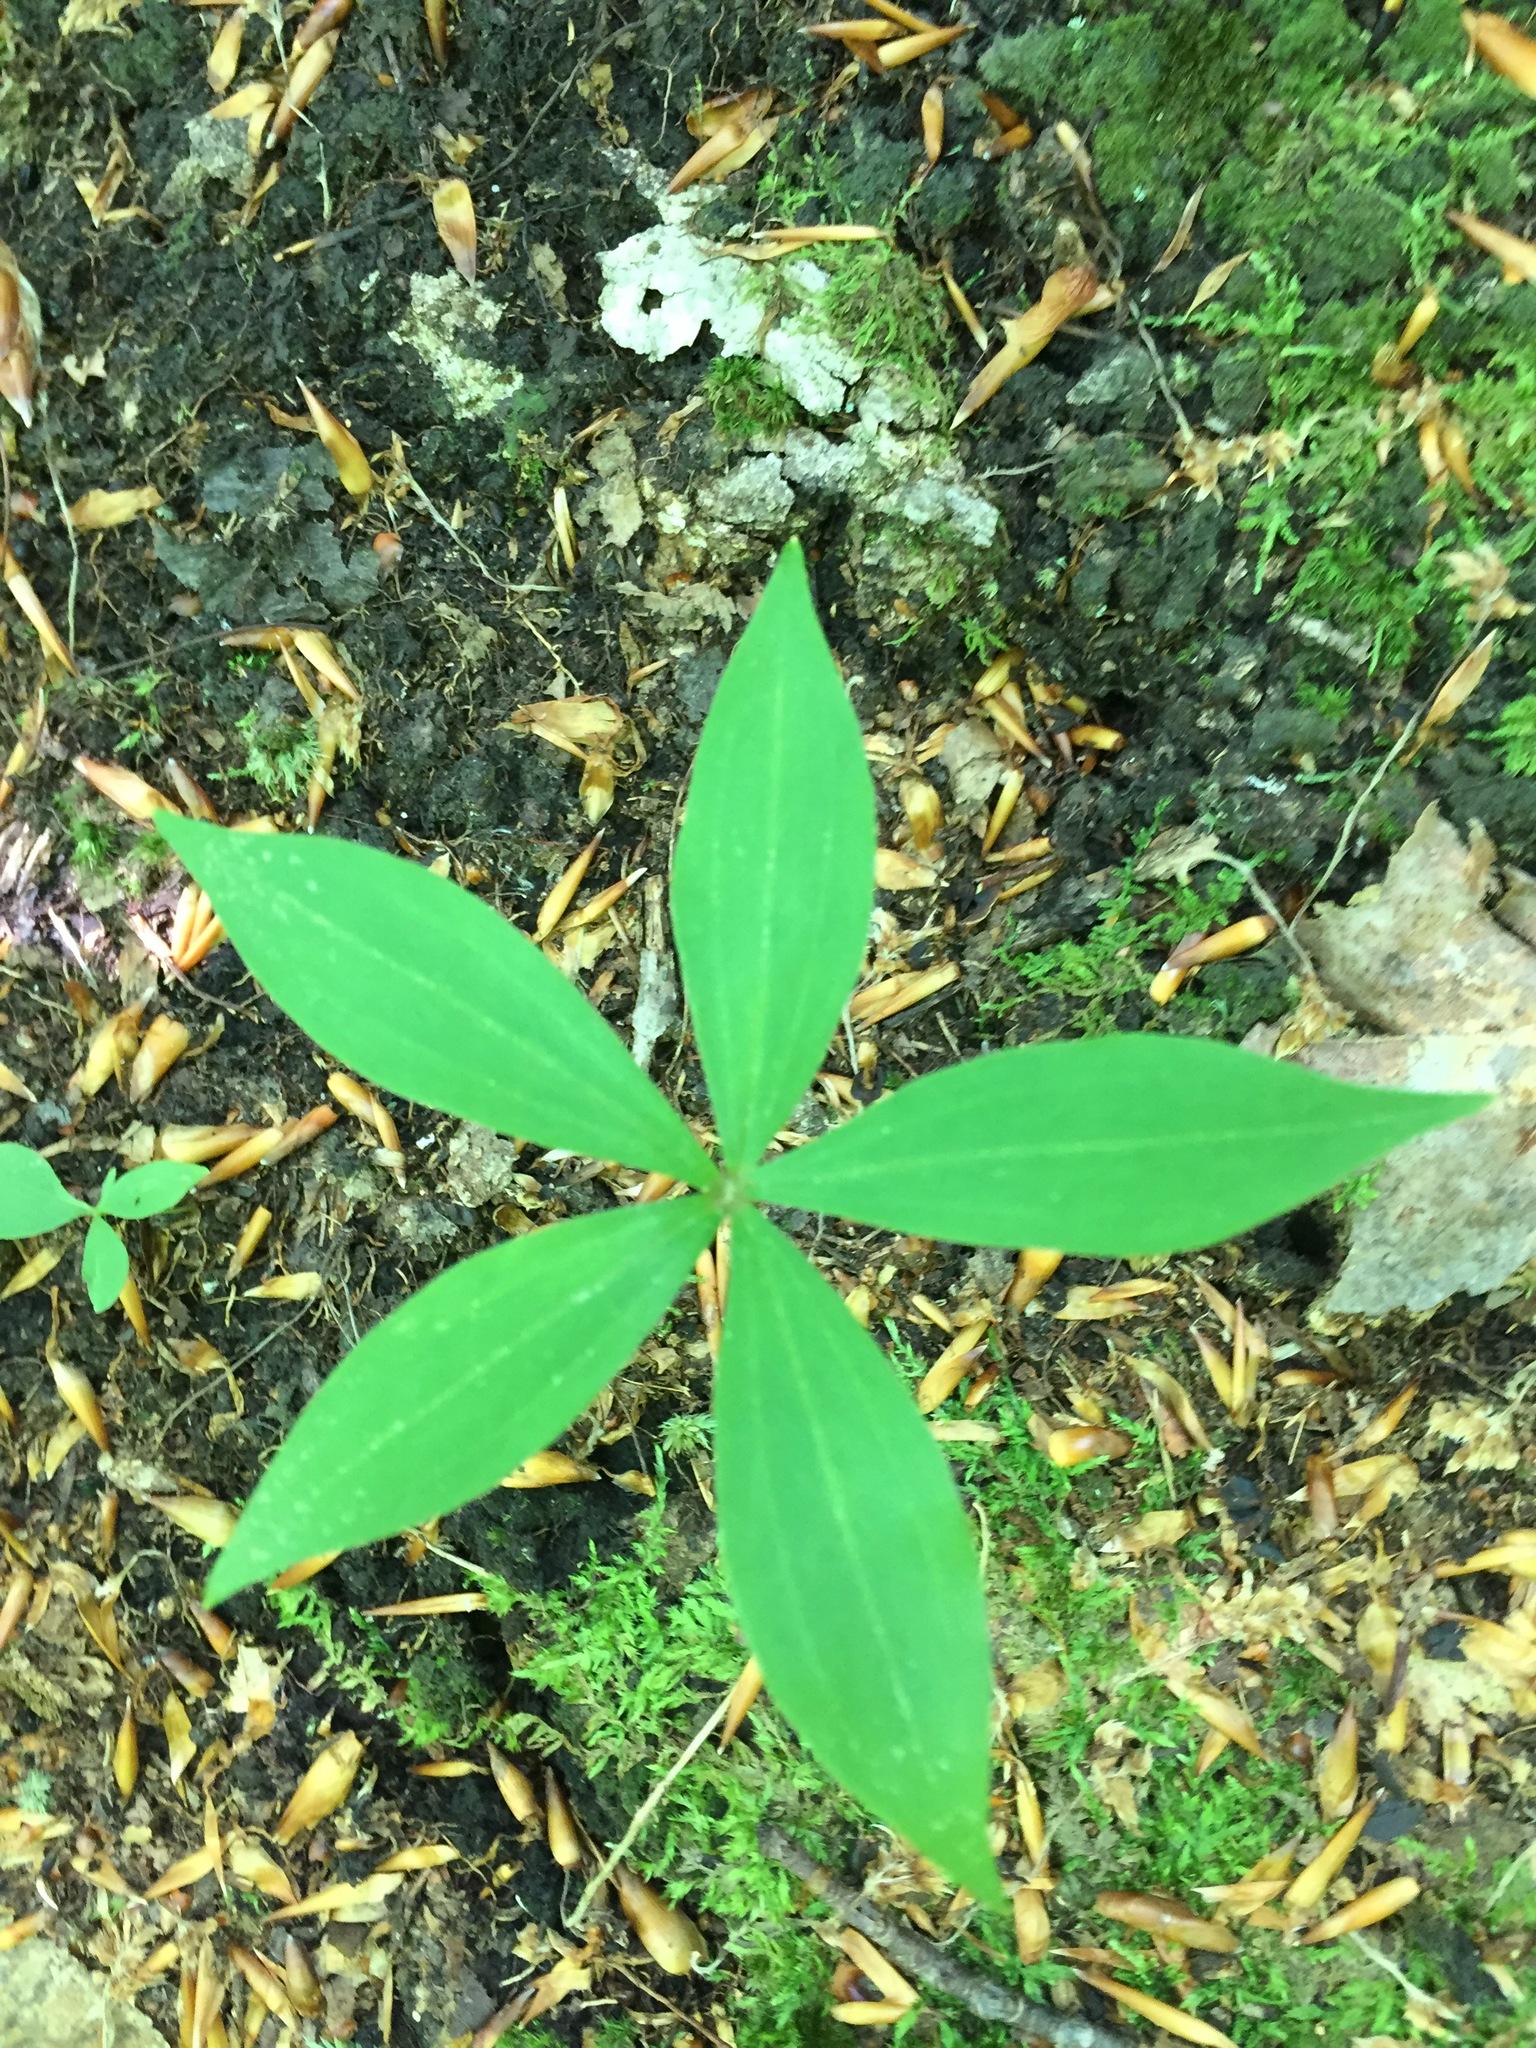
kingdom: Plantae
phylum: Tracheophyta
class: Liliopsida
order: Liliales
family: Liliaceae
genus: Medeola
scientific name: Medeola virginiana
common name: Indian cucumber-root
